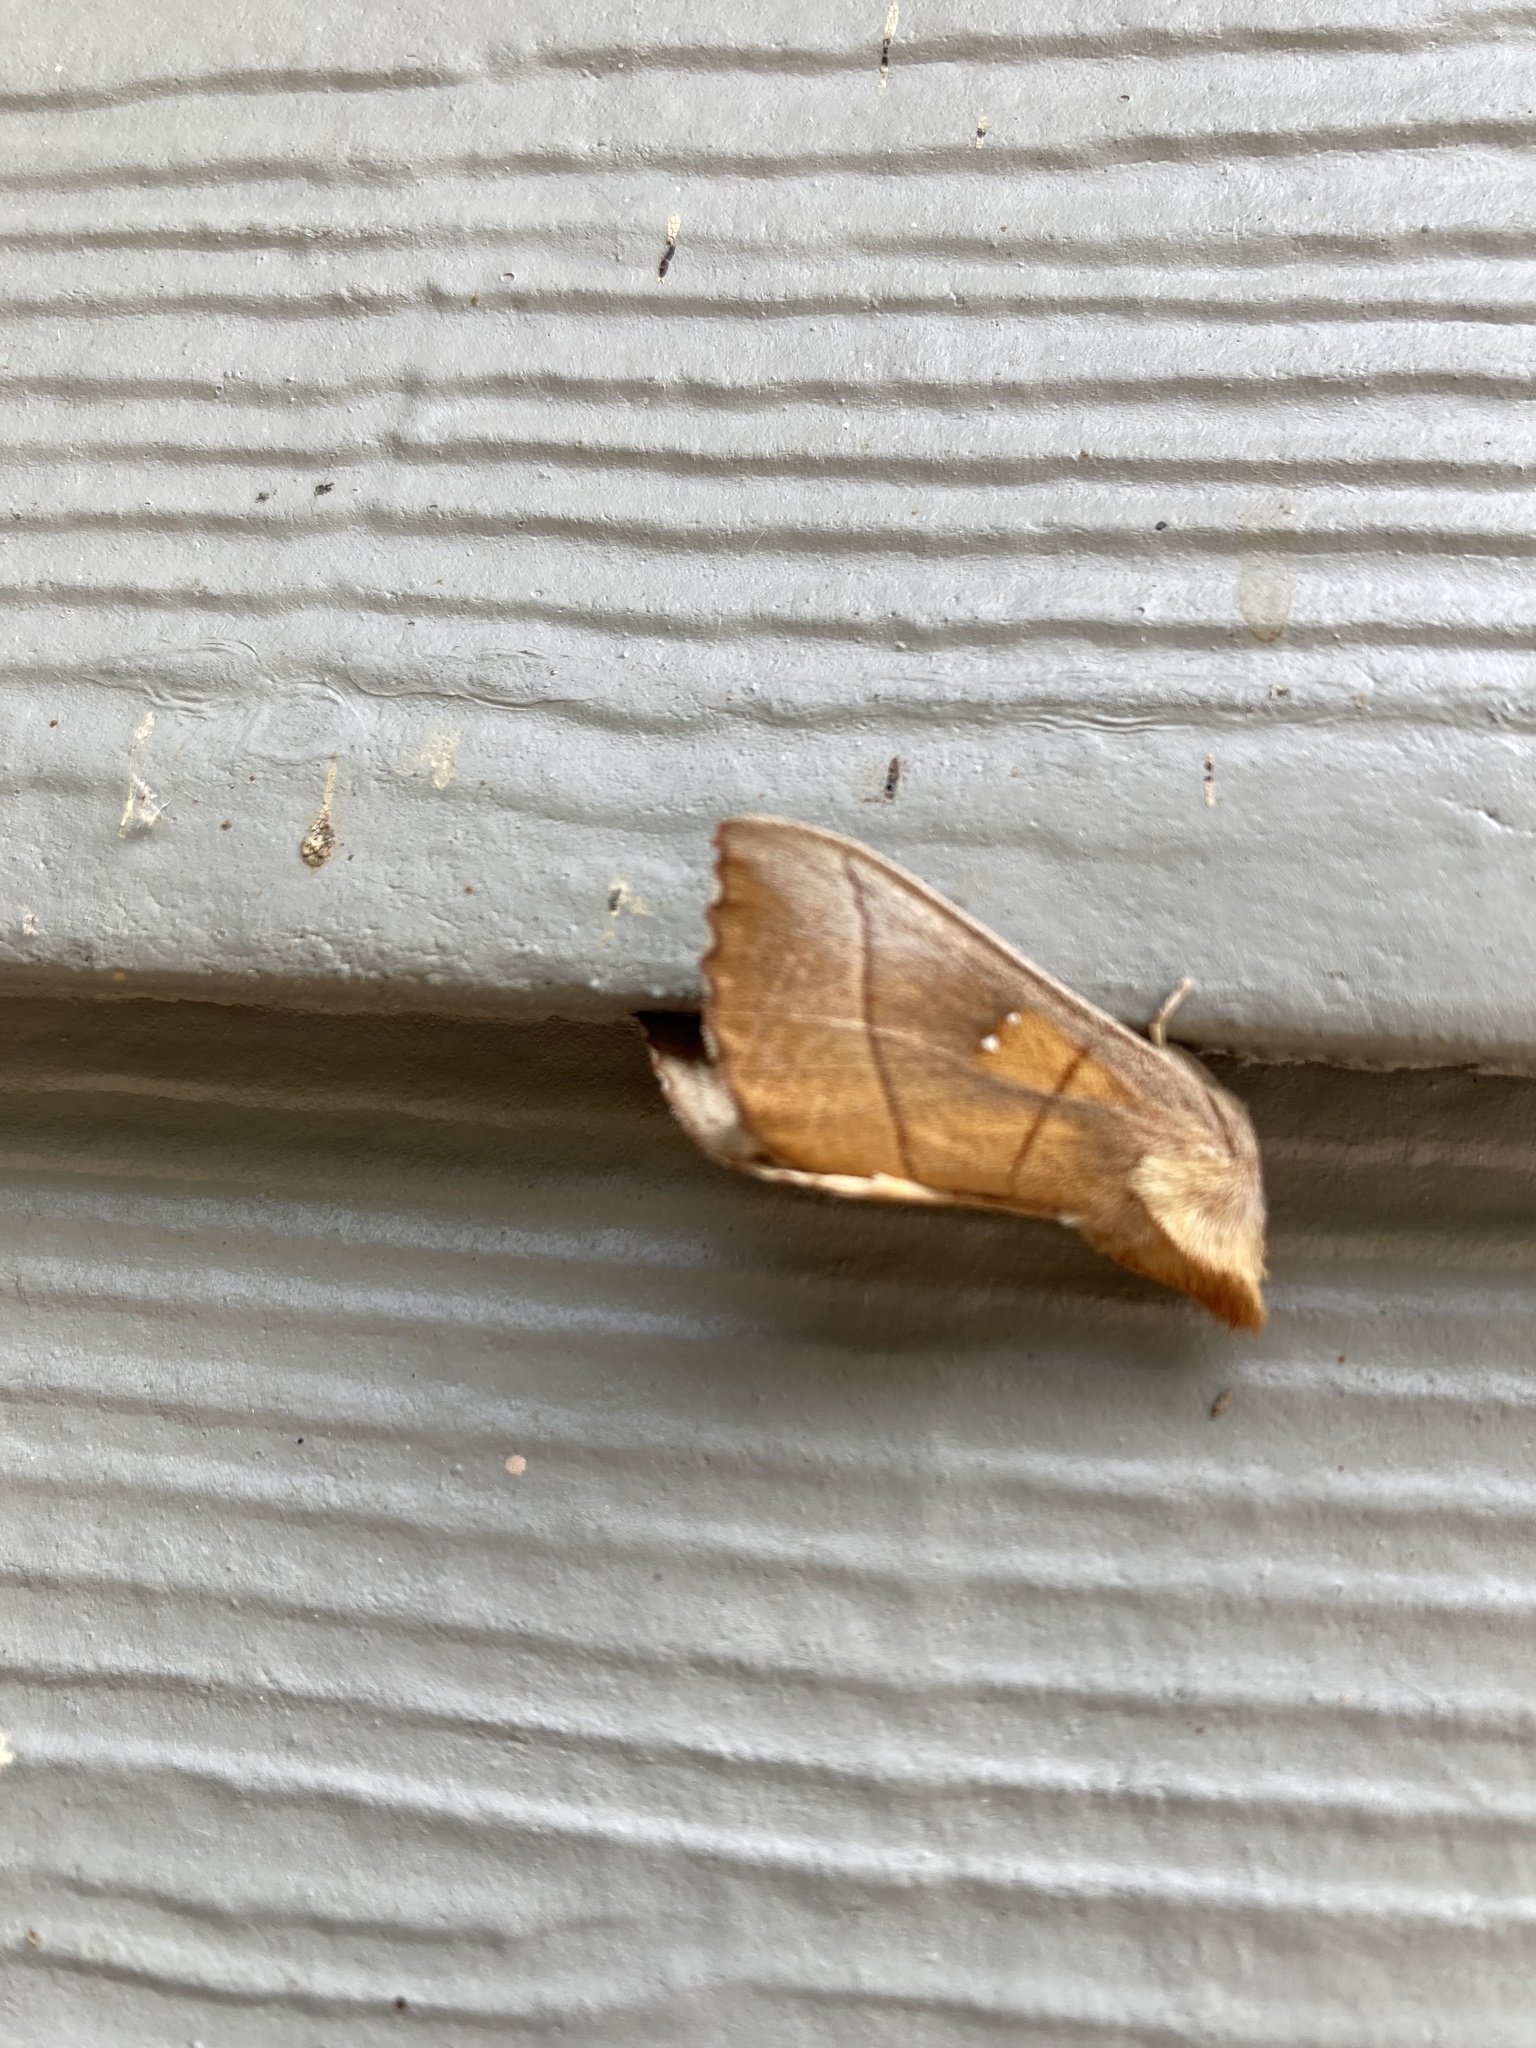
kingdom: Animalia
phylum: Arthropoda
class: Insecta
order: Lepidoptera
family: Notodontidae
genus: Nadata
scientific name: Nadata gibbosa
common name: White-dotted prominent
